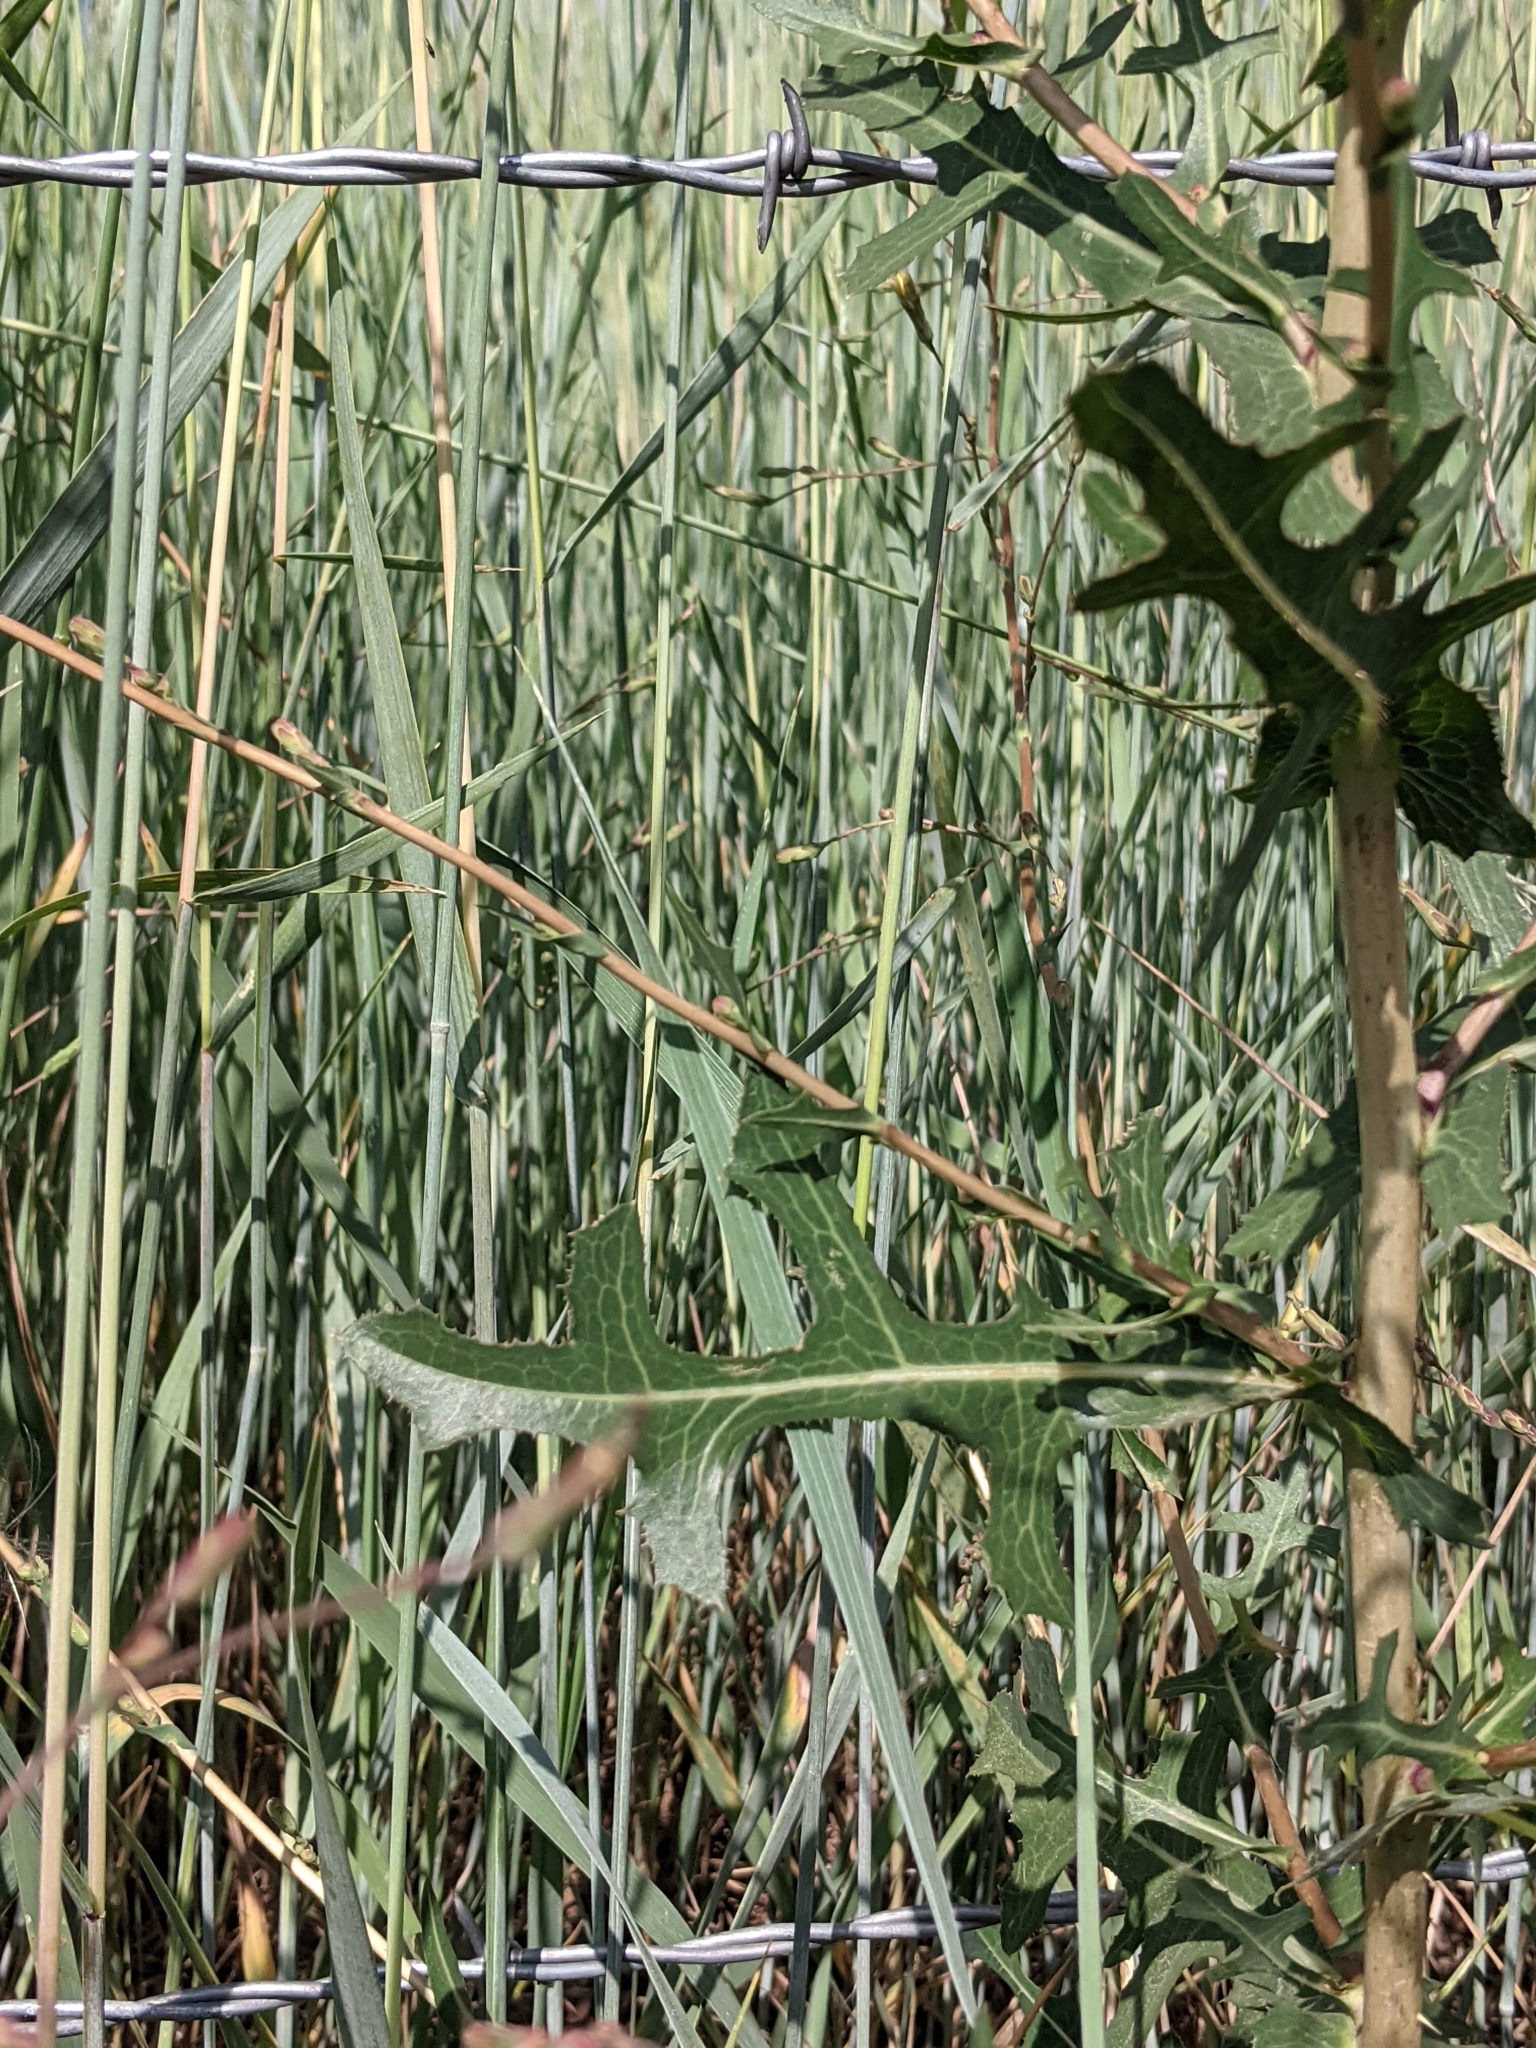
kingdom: Plantae
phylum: Tracheophyta
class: Magnoliopsida
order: Asterales
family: Asteraceae
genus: Lactuca
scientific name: Lactuca serriola
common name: Prickly lettuce
